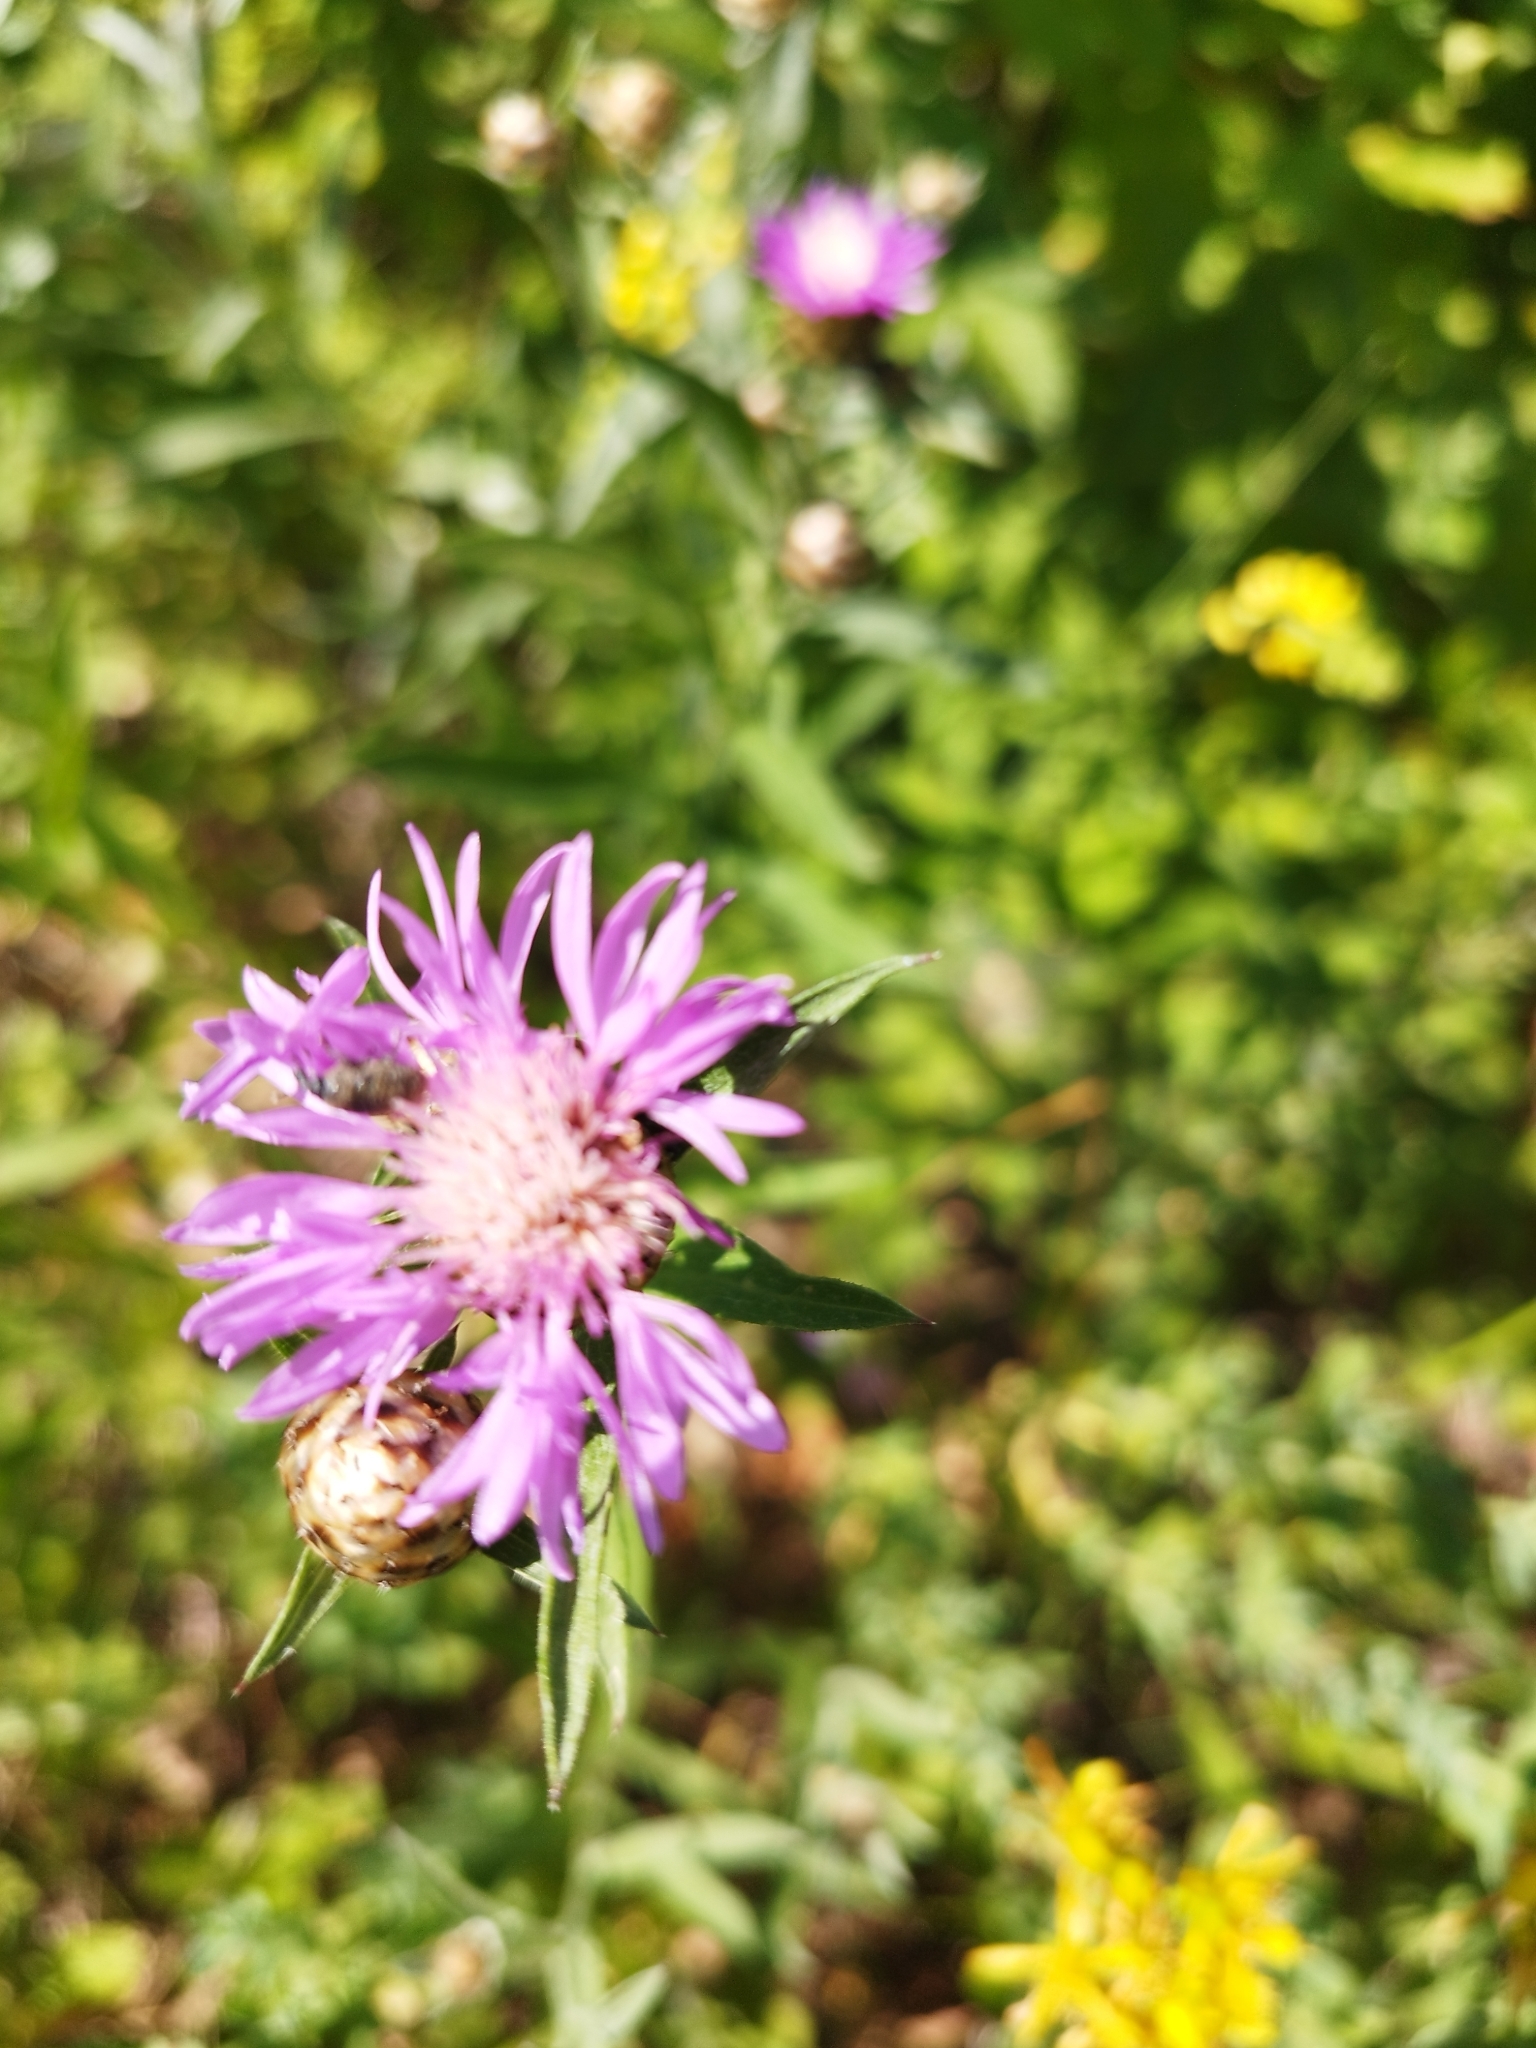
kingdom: Plantae
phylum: Tracheophyta
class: Magnoliopsida
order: Asterales
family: Asteraceae
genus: Centaurea
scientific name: Centaurea jacea
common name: Brown knapweed
